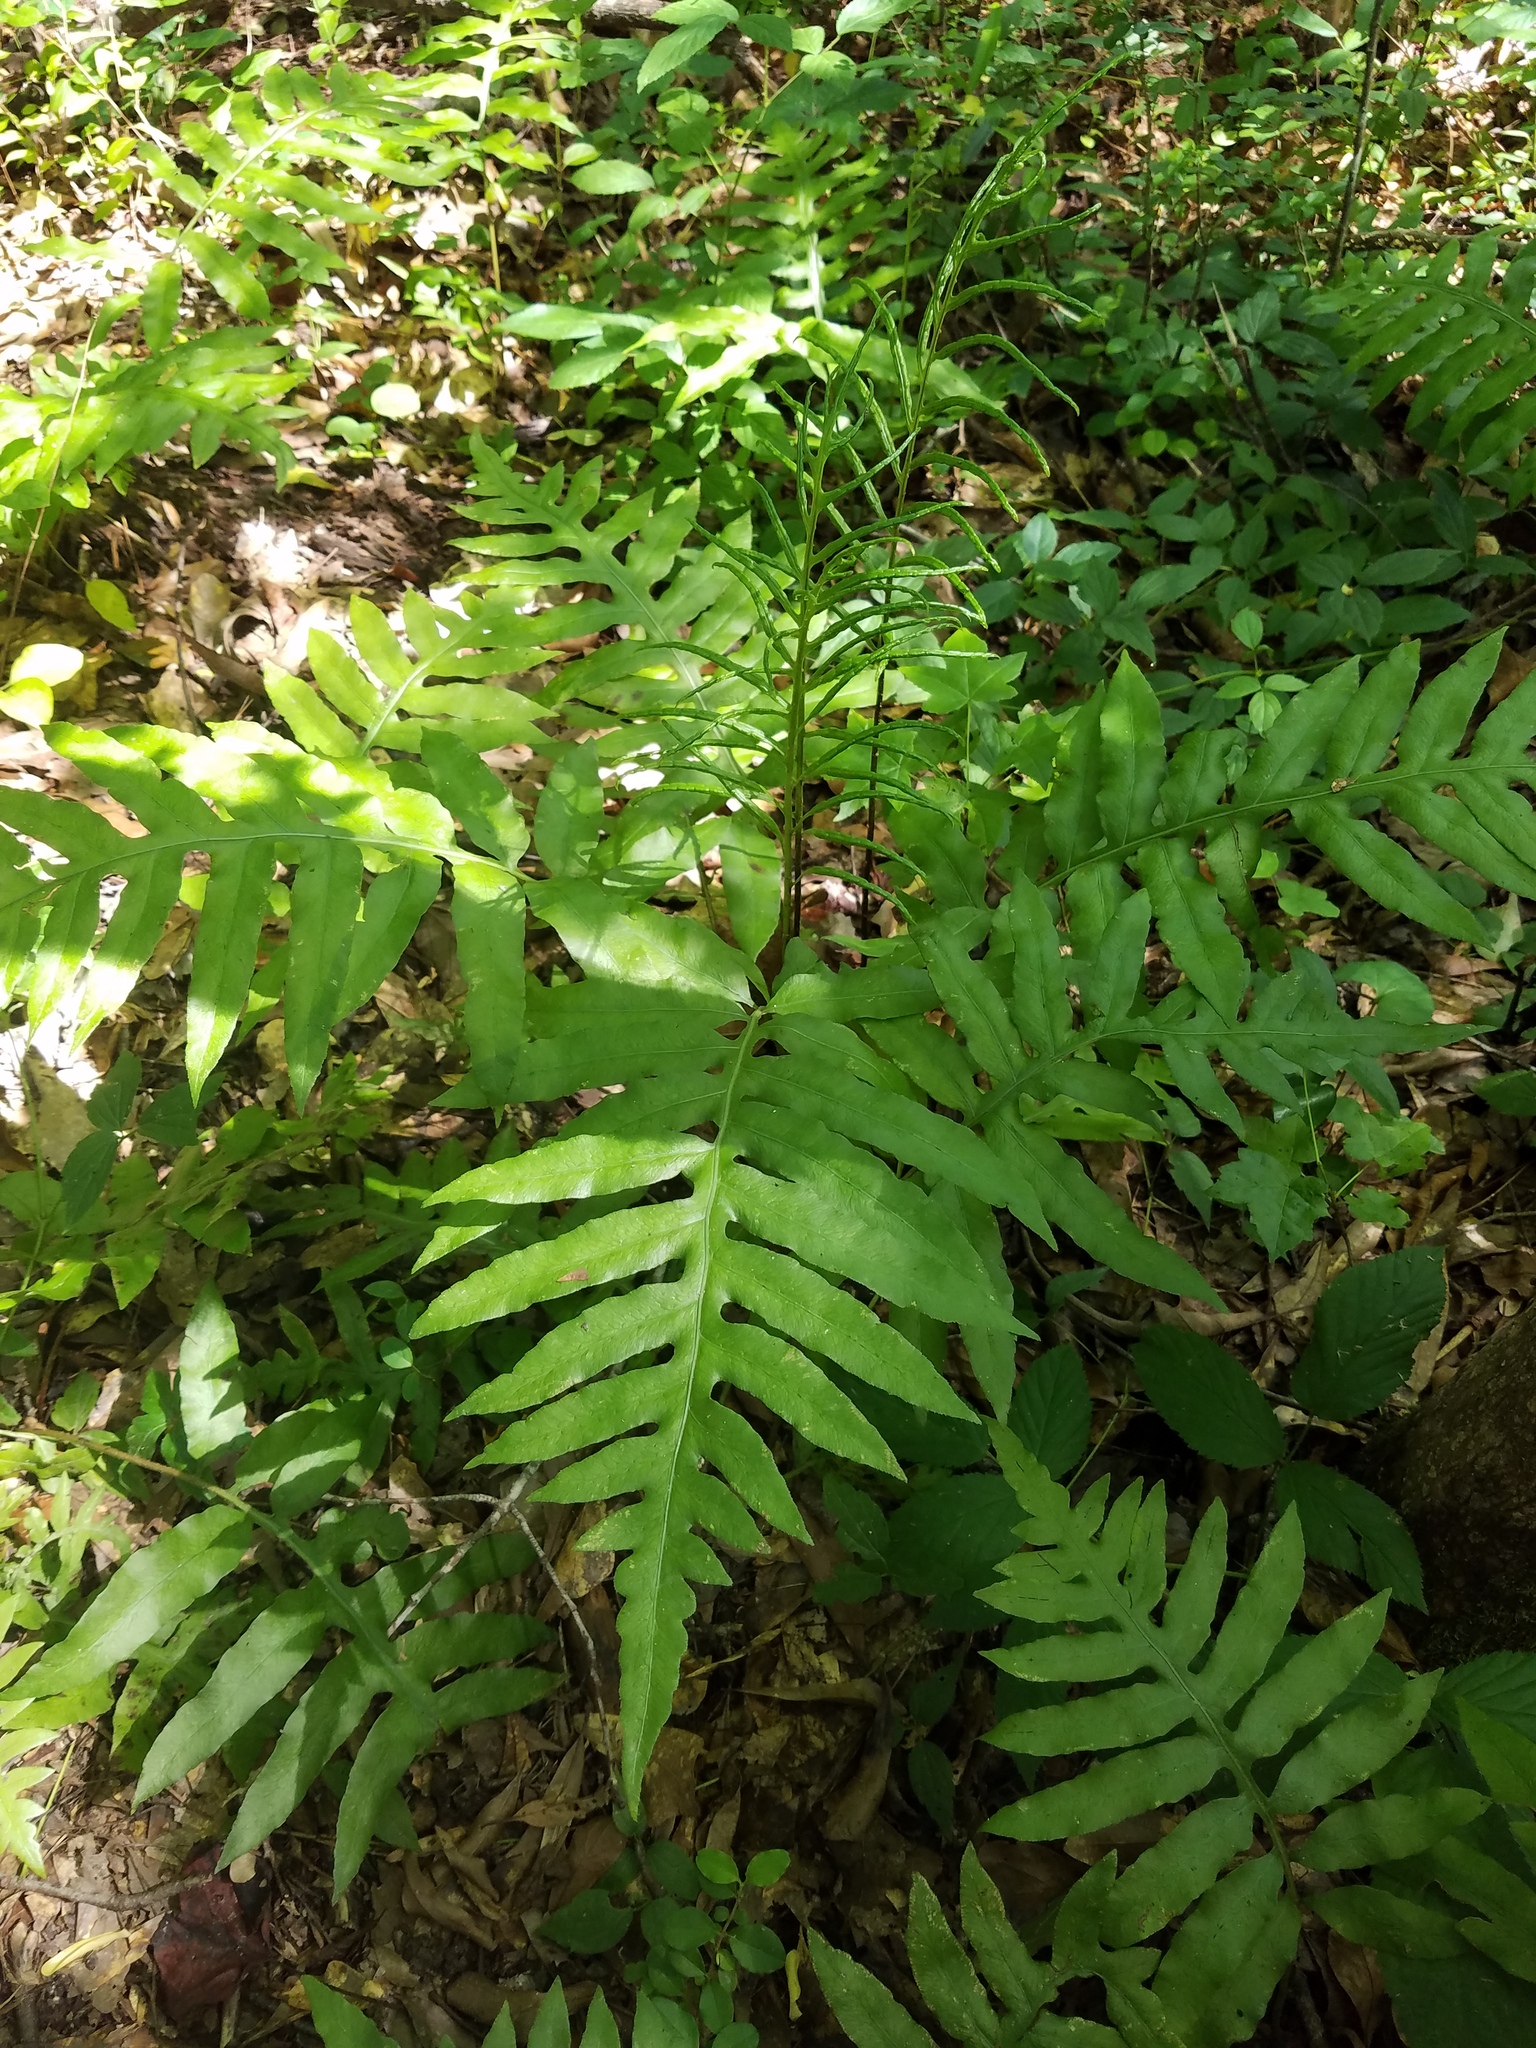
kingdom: Plantae
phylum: Tracheophyta
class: Polypodiopsida
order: Polypodiales
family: Blechnaceae
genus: Lorinseria
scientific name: Lorinseria areolata
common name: Dwarf chain fern
